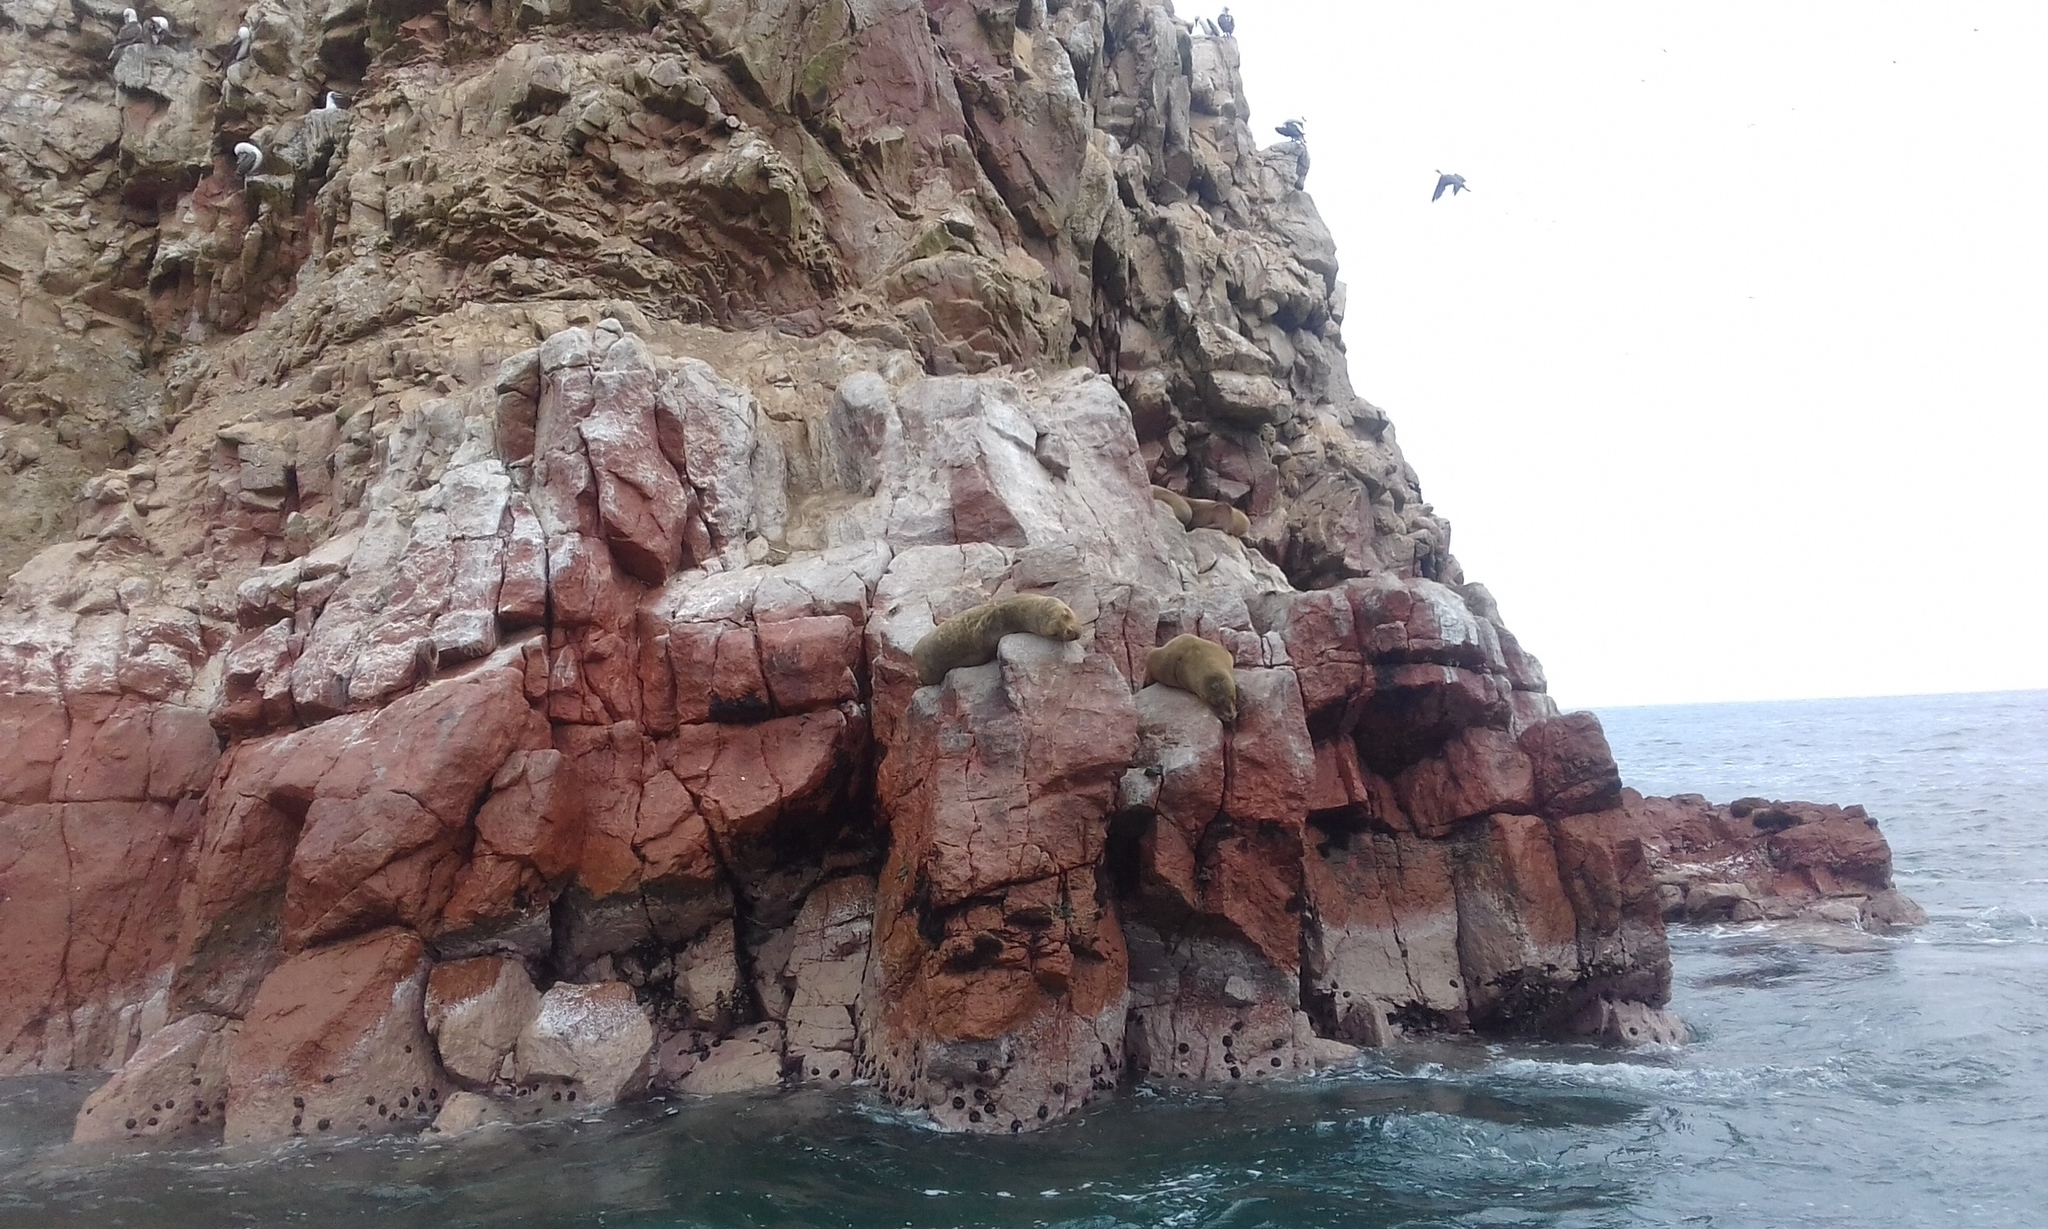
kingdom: Animalia
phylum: Chordata
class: Mammalia
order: Carnivora
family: Otariidae
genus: Otaria
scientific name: Otaria byronia
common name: South american sea lion
